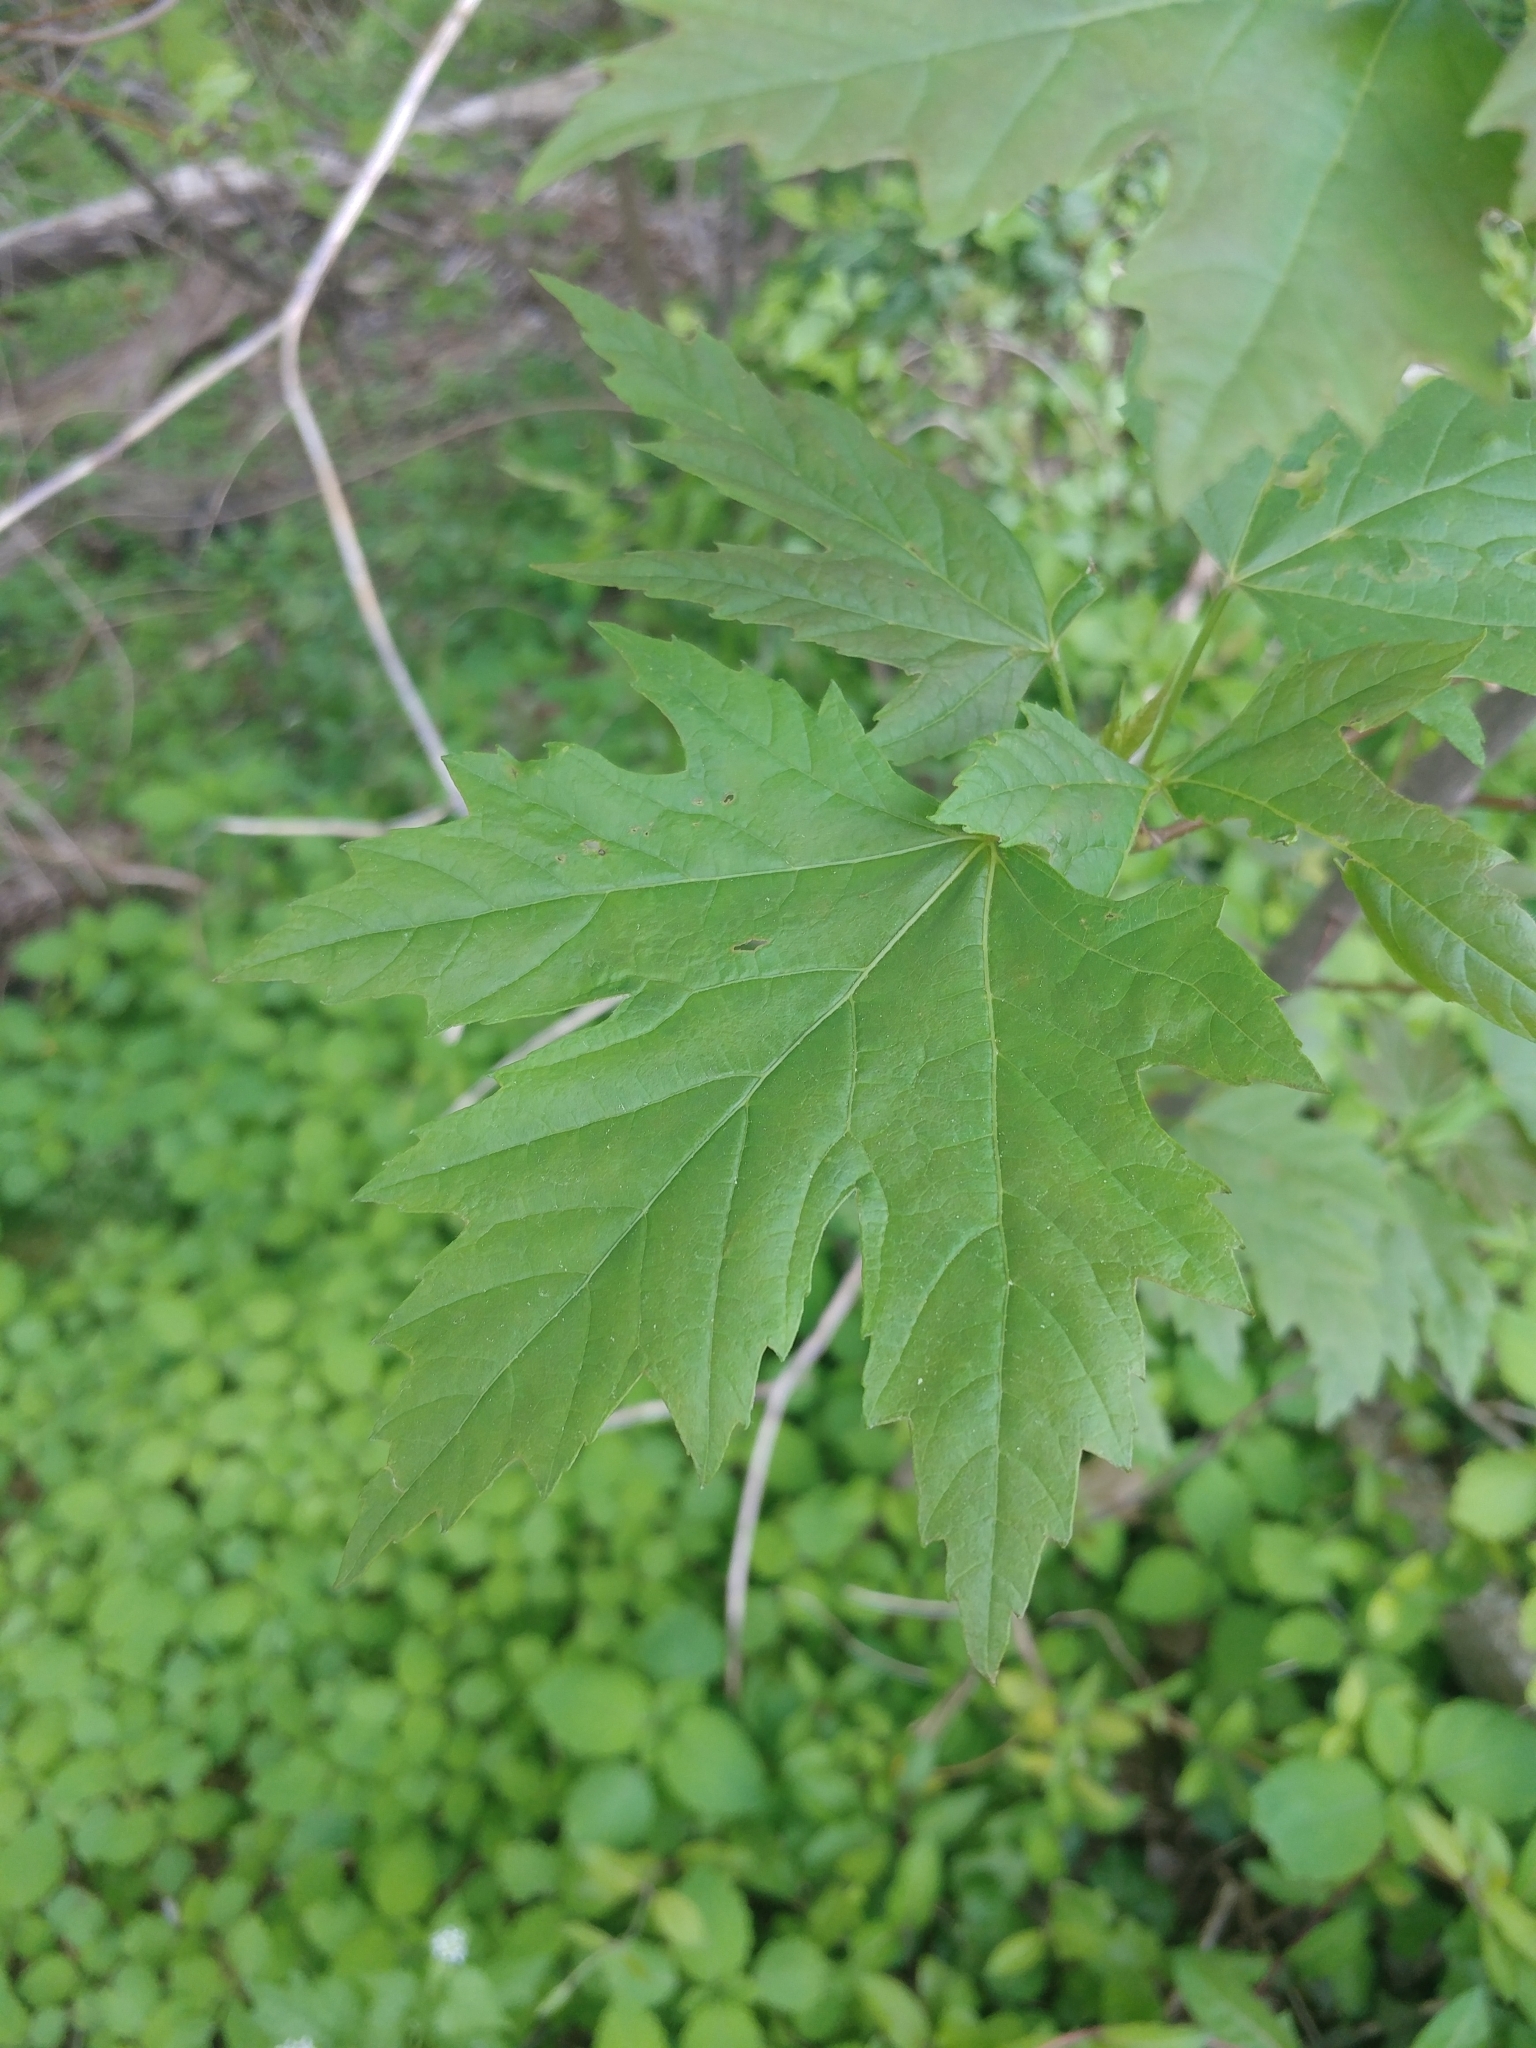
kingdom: Plantae
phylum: Tracheophyta
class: Magnoliopsida
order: Sapindales
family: Sapindaceae
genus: Acer
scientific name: Acer saccharinum
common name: Silver maple
